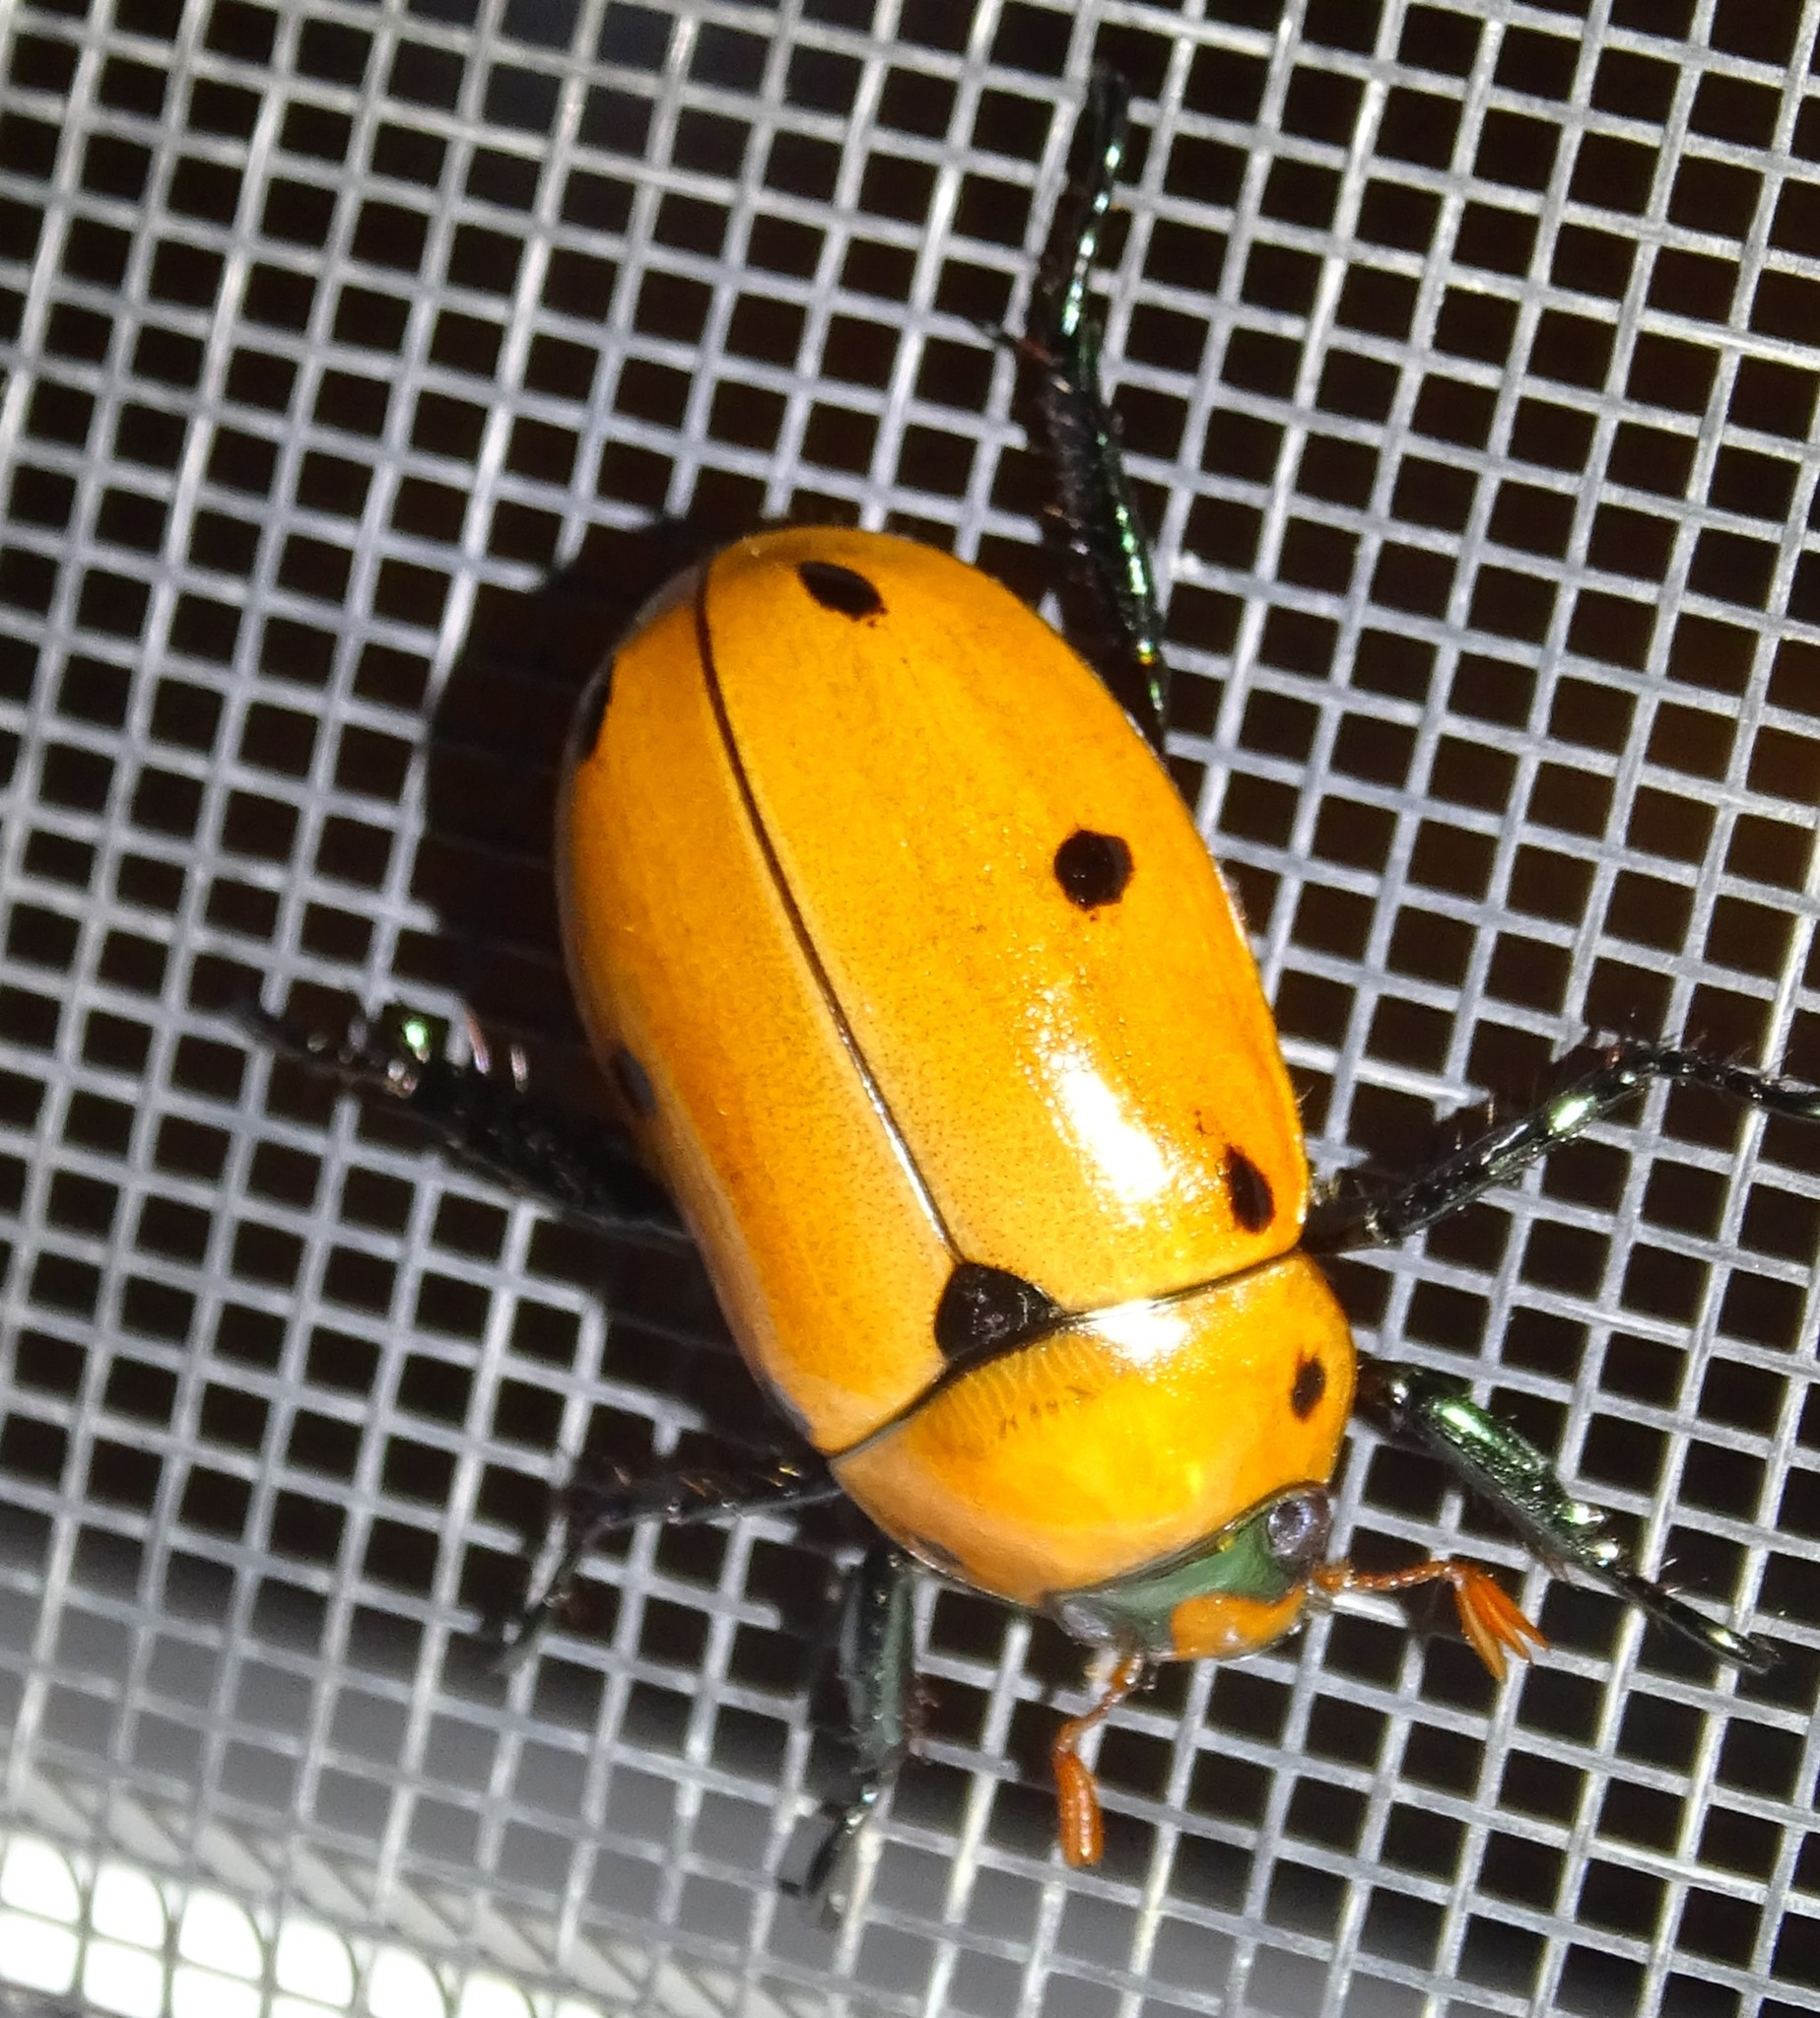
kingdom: Animalia
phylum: Arthropoda
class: Insecta
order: Coleoptera
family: Scarabaeidae
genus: Pelidnota
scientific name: Pelidnota punctata
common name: Grapevine beetle
